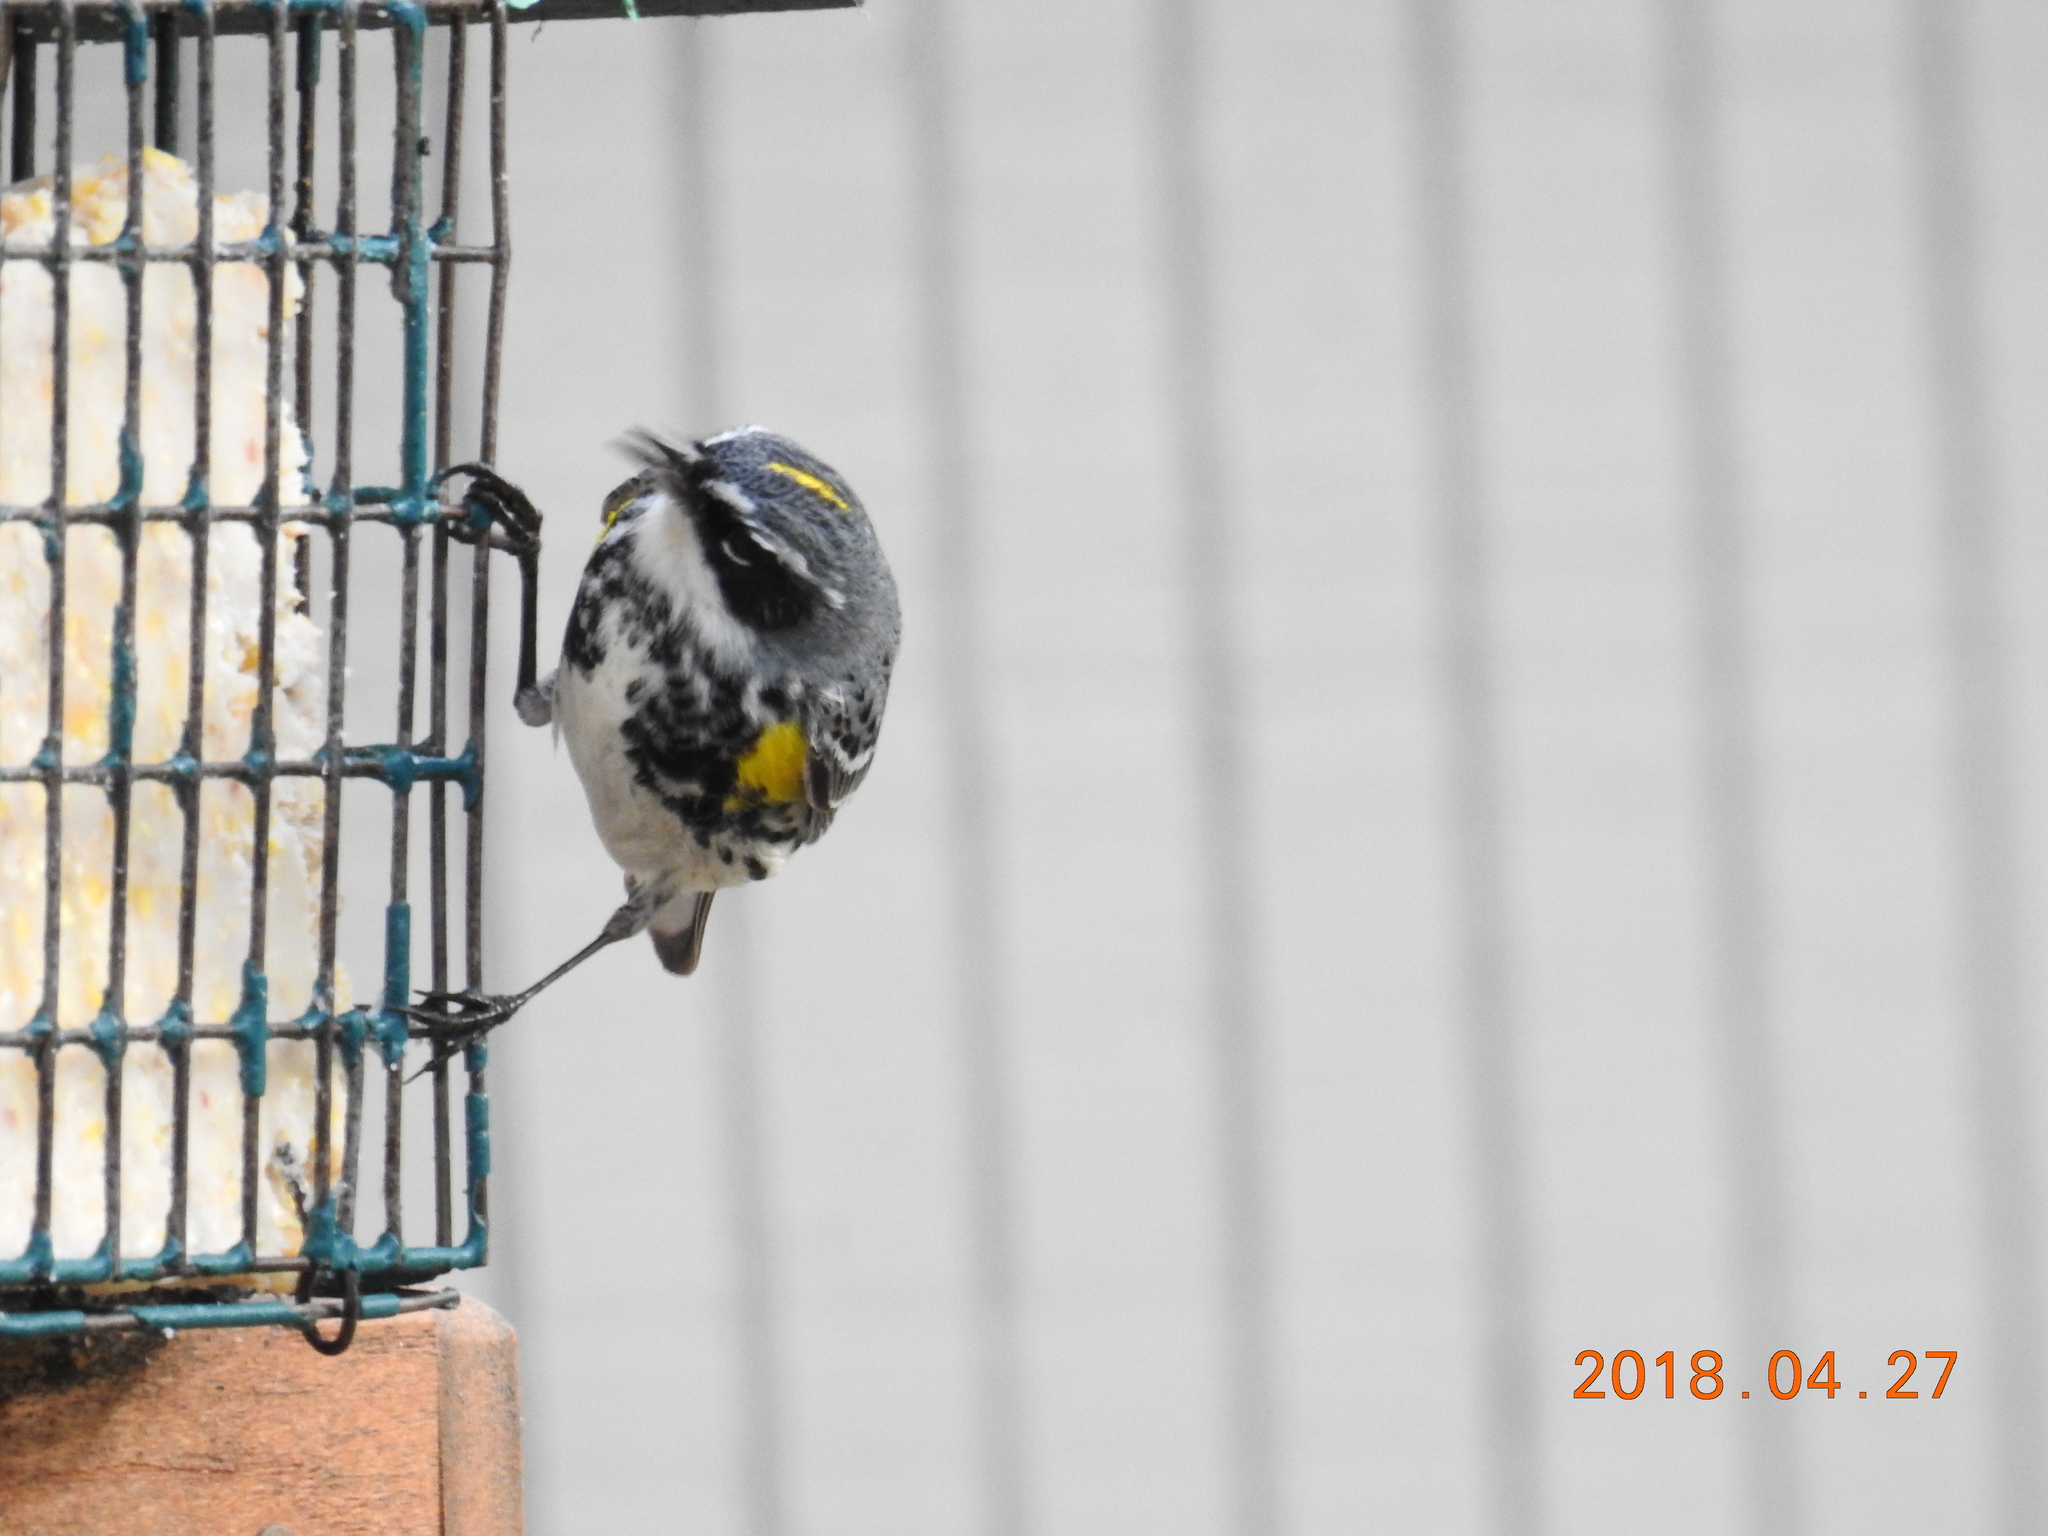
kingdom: Animalia
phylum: Chordata
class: Aves
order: Passeriformes
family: Parulidae
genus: Setophaga
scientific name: Setophaga coronata
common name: Myrtle warbler
